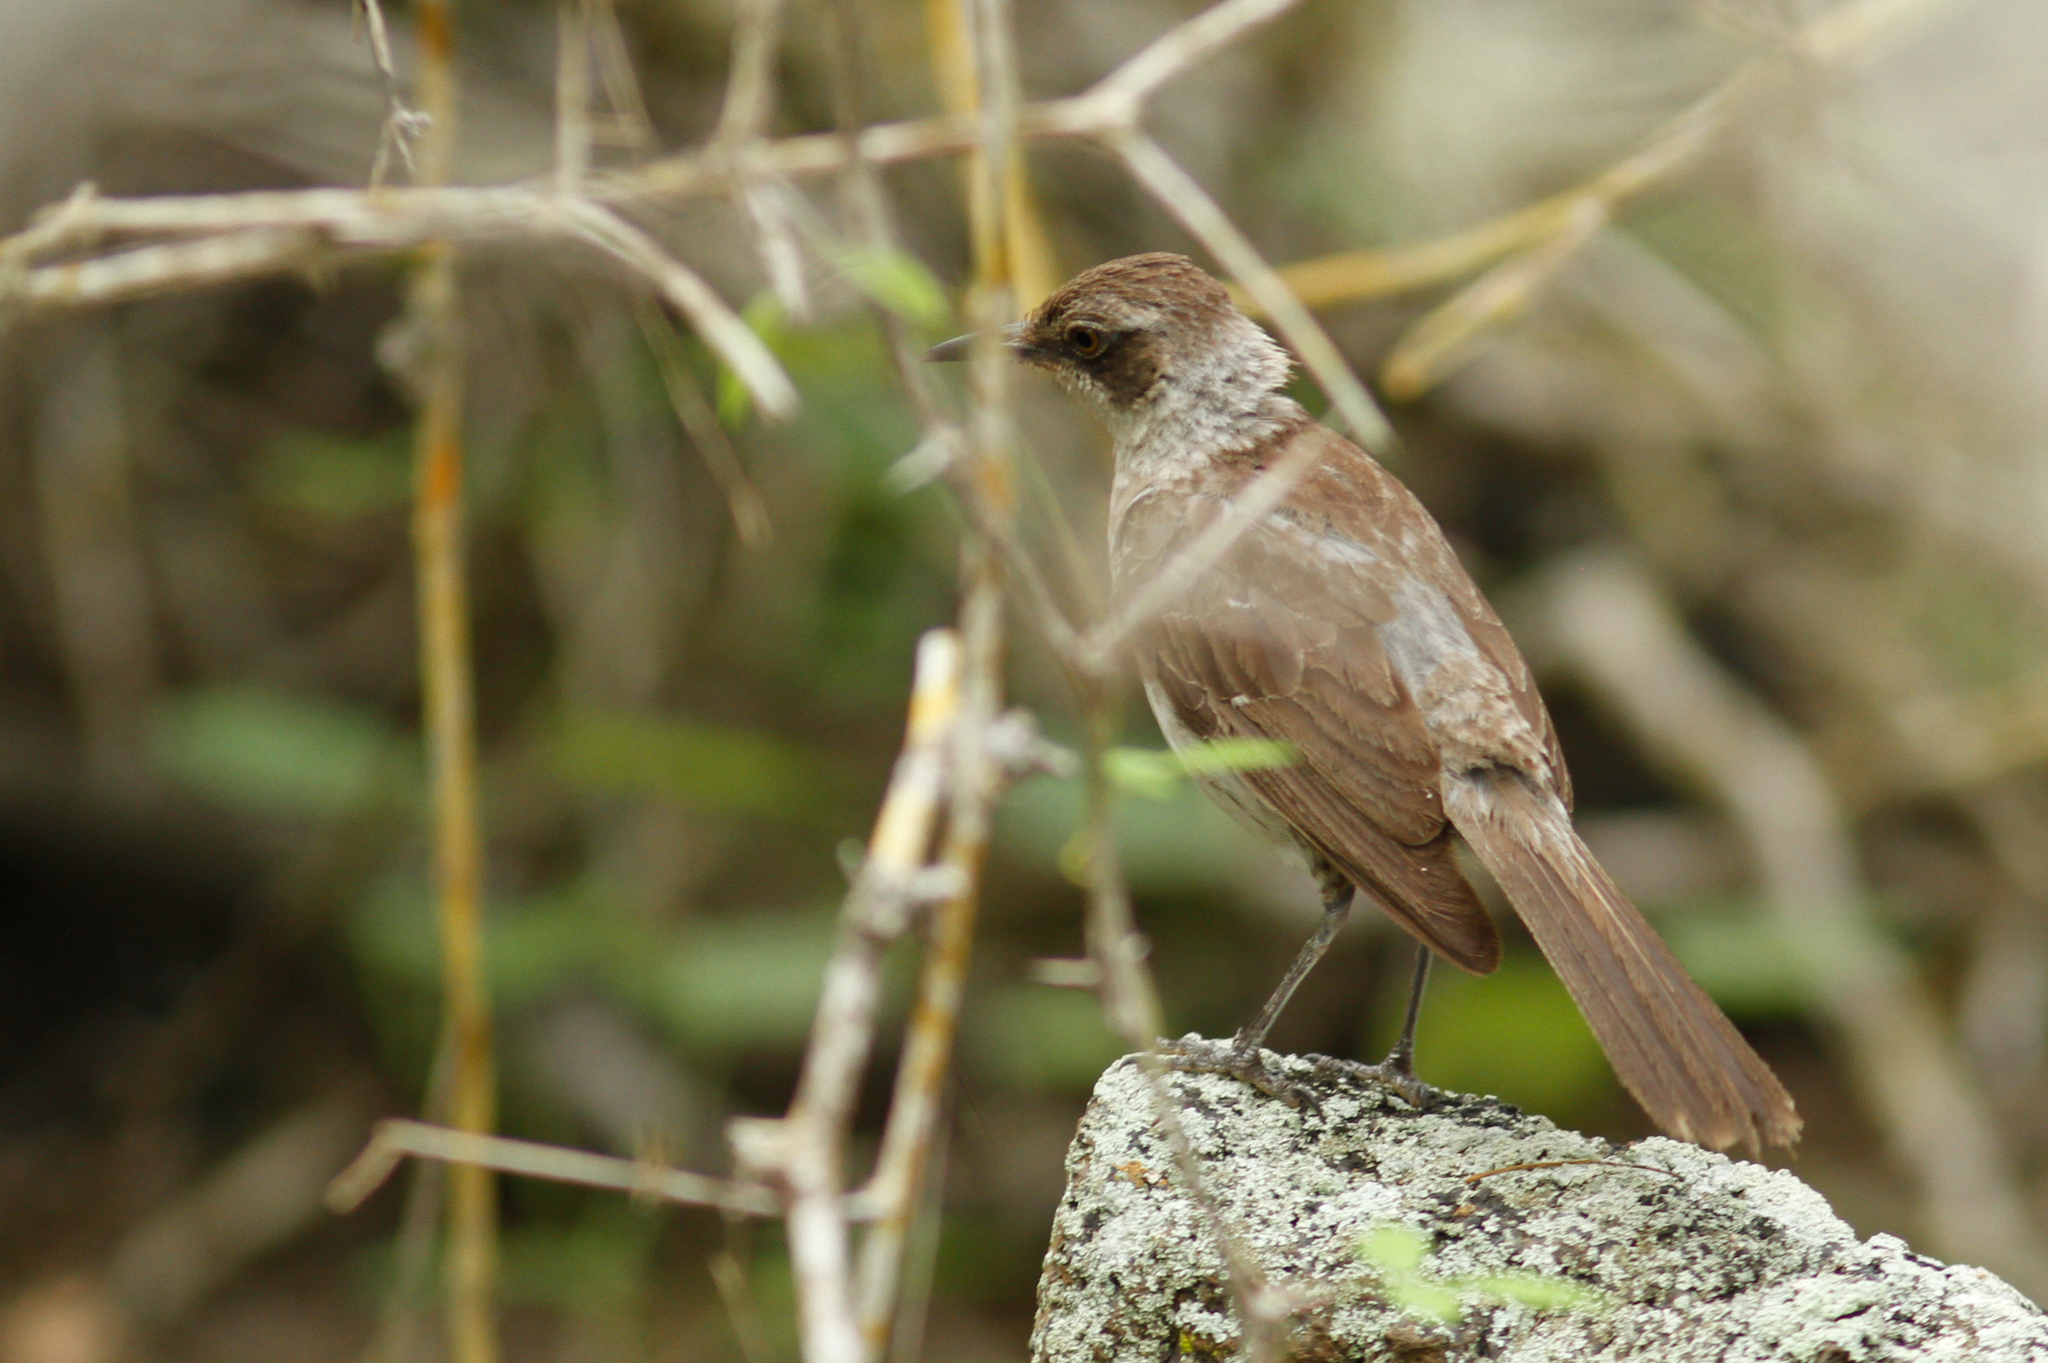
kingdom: Animalia
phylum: Chordata
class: Aves
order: Passeriformes
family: Mimidae
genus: Mimus
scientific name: Mimus parvulus
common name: Galapagos mockingbird
